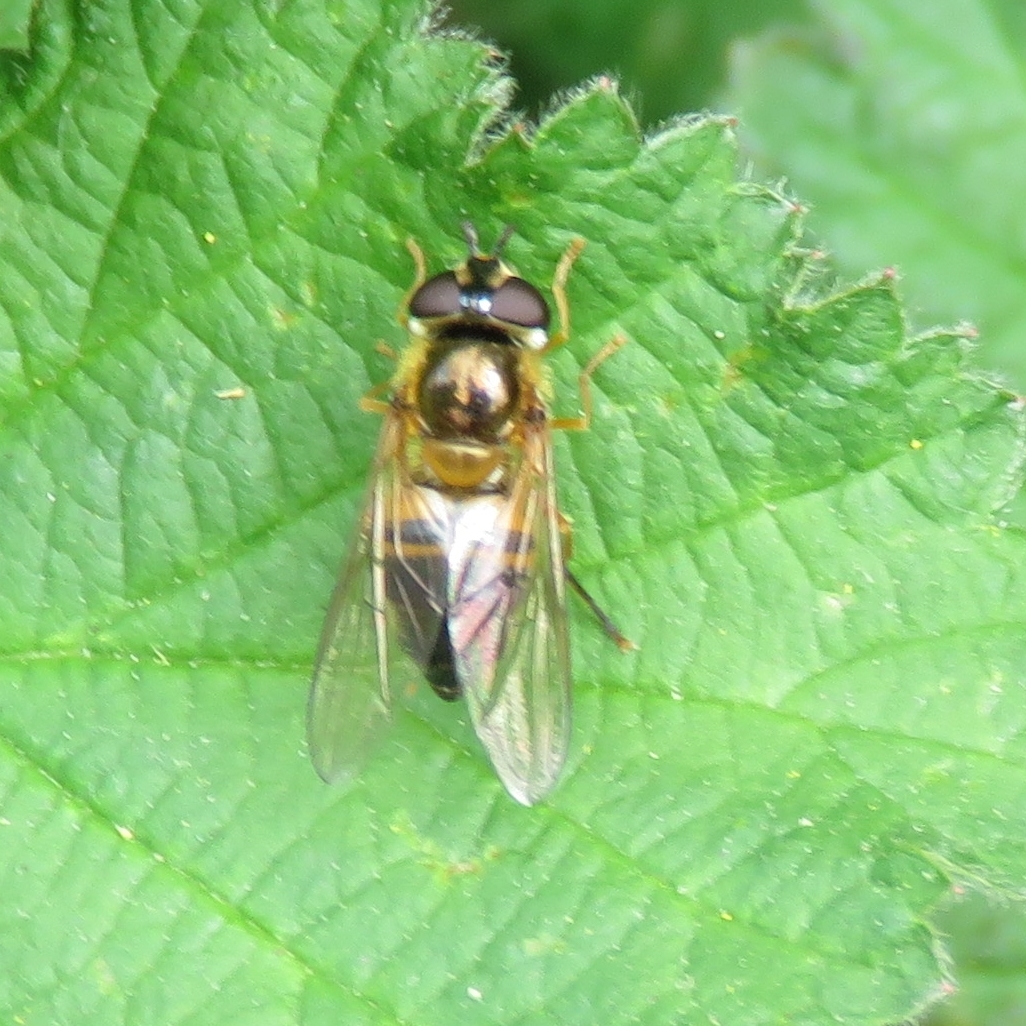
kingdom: Animalia
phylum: Arthropoda
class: Insecta
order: Diptera
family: Syrphidae
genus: Epistrophe
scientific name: Epistrophe eligans
